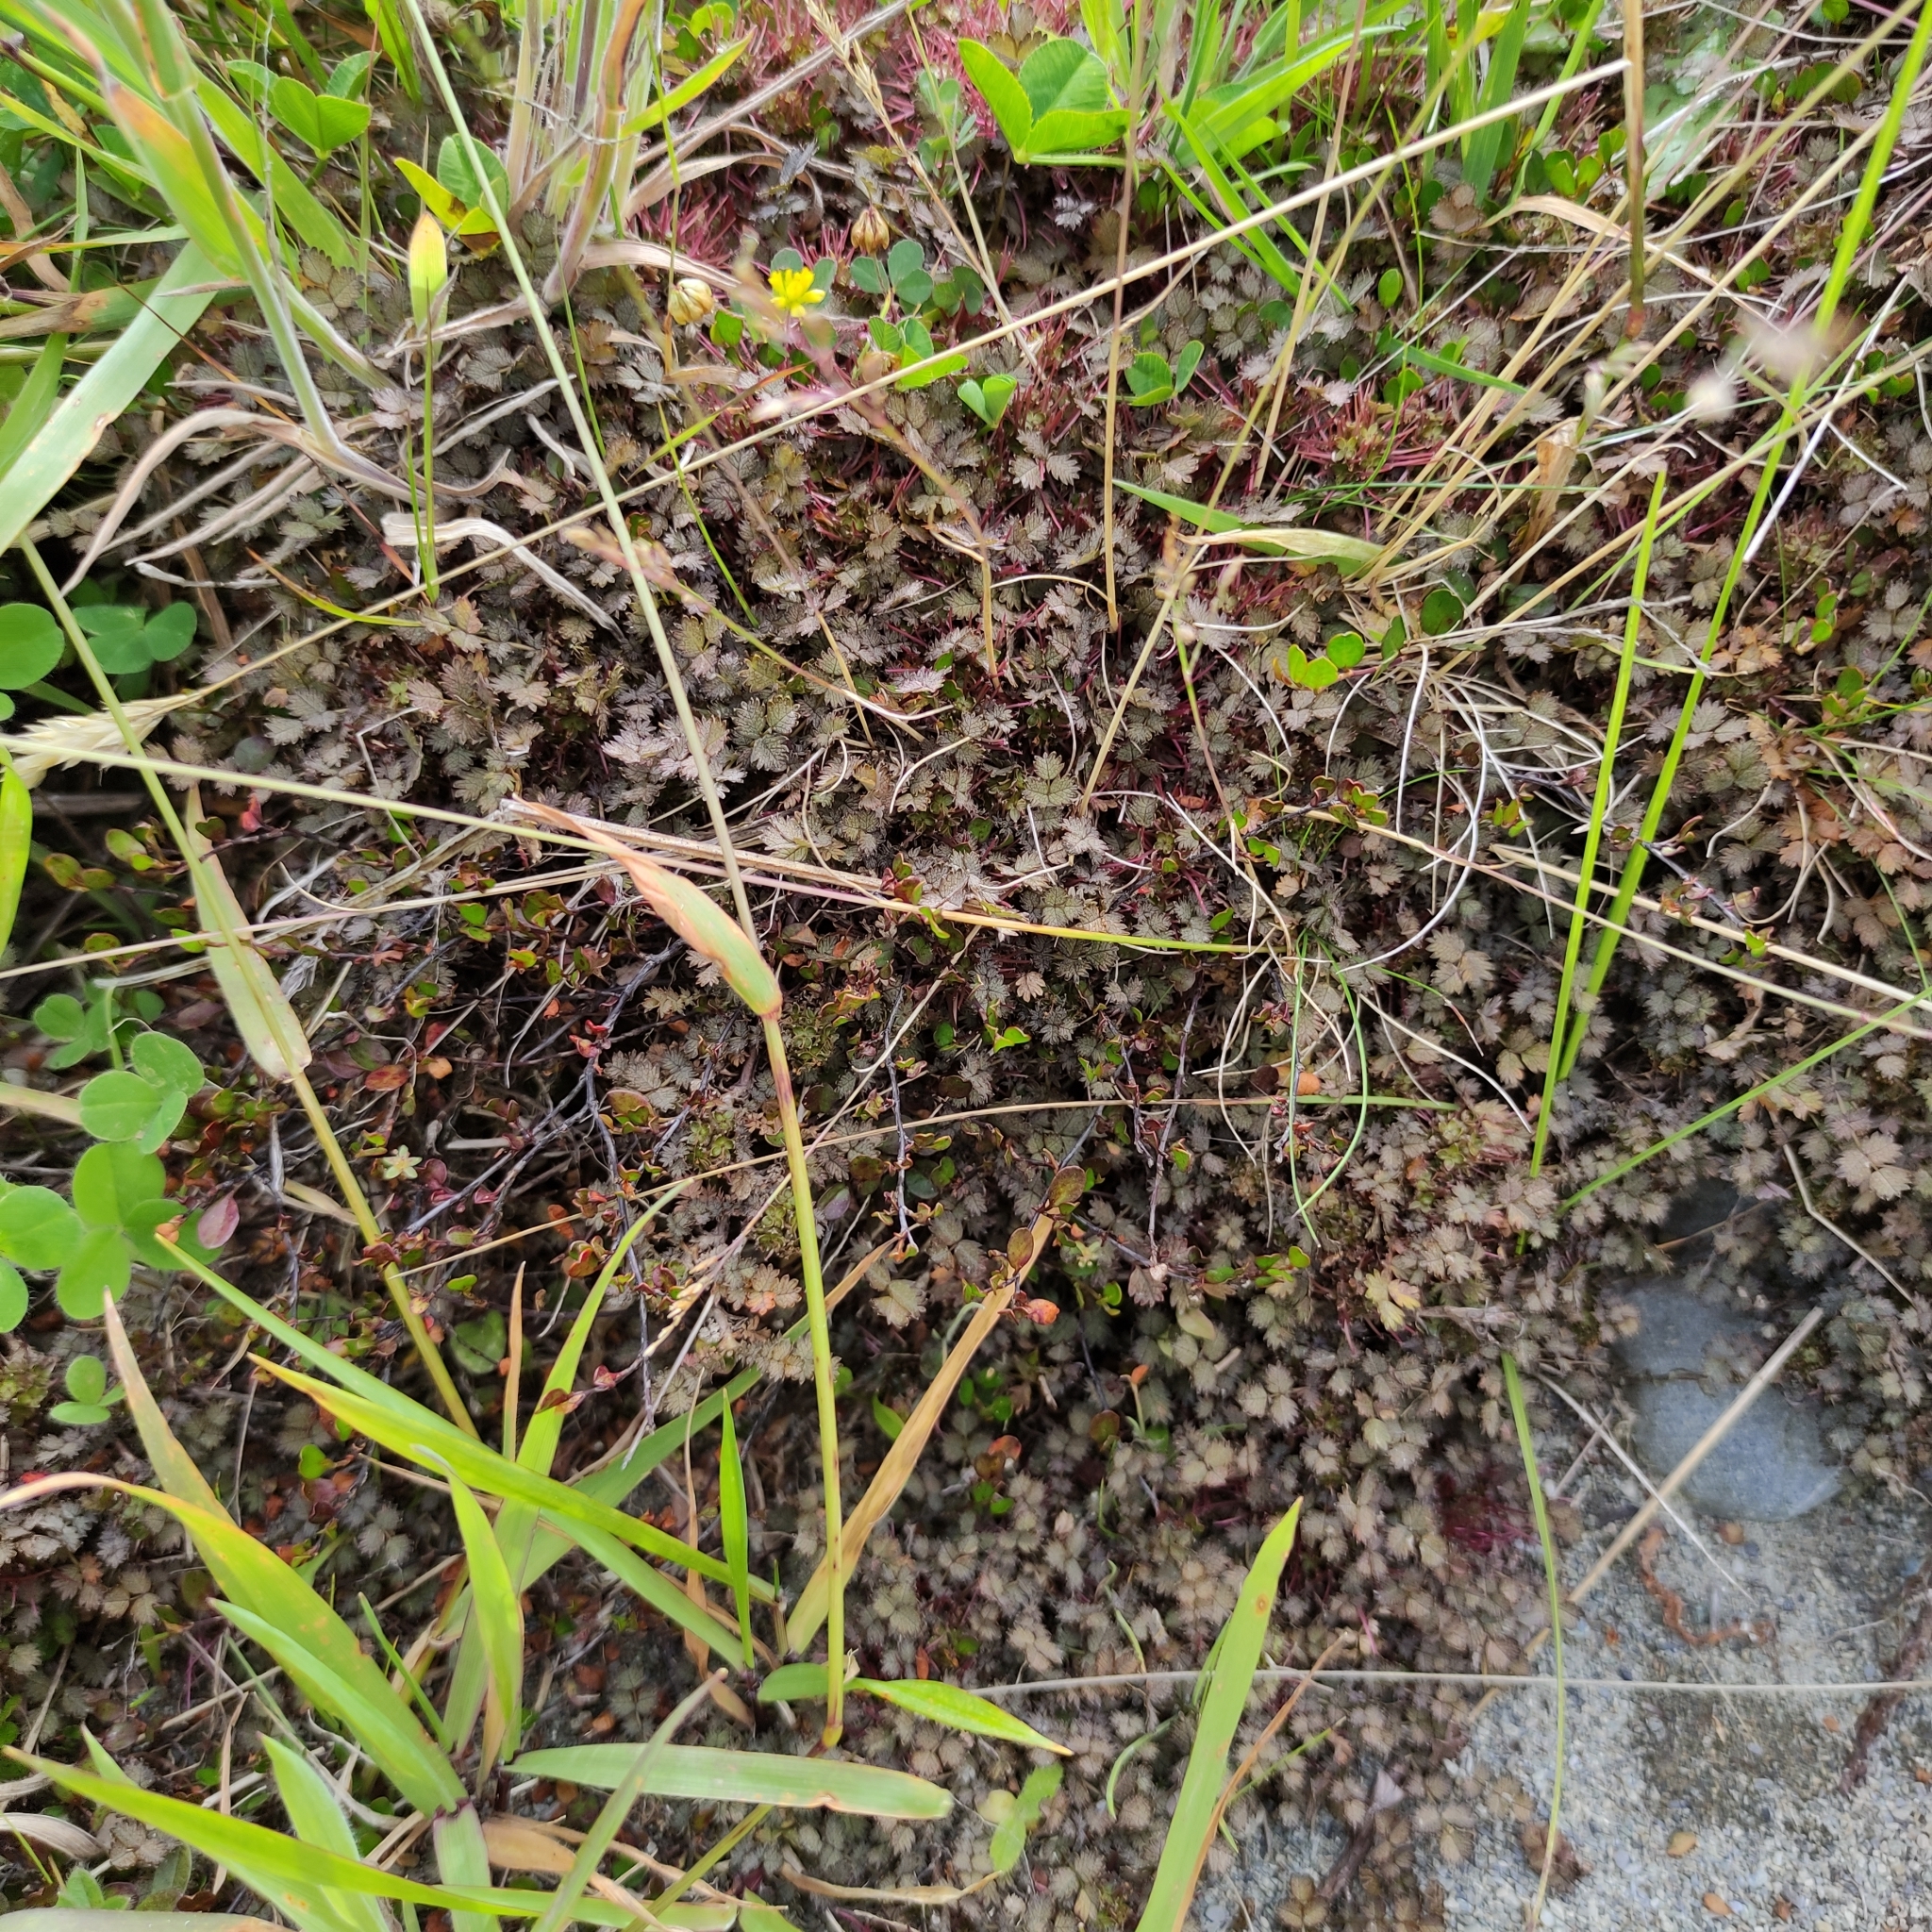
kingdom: Plantae
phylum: Tracheophyta
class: Magnoliopsida
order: Rosales
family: Rosaceae
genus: Acaena
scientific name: Acaena inermis
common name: Spineless acaena
